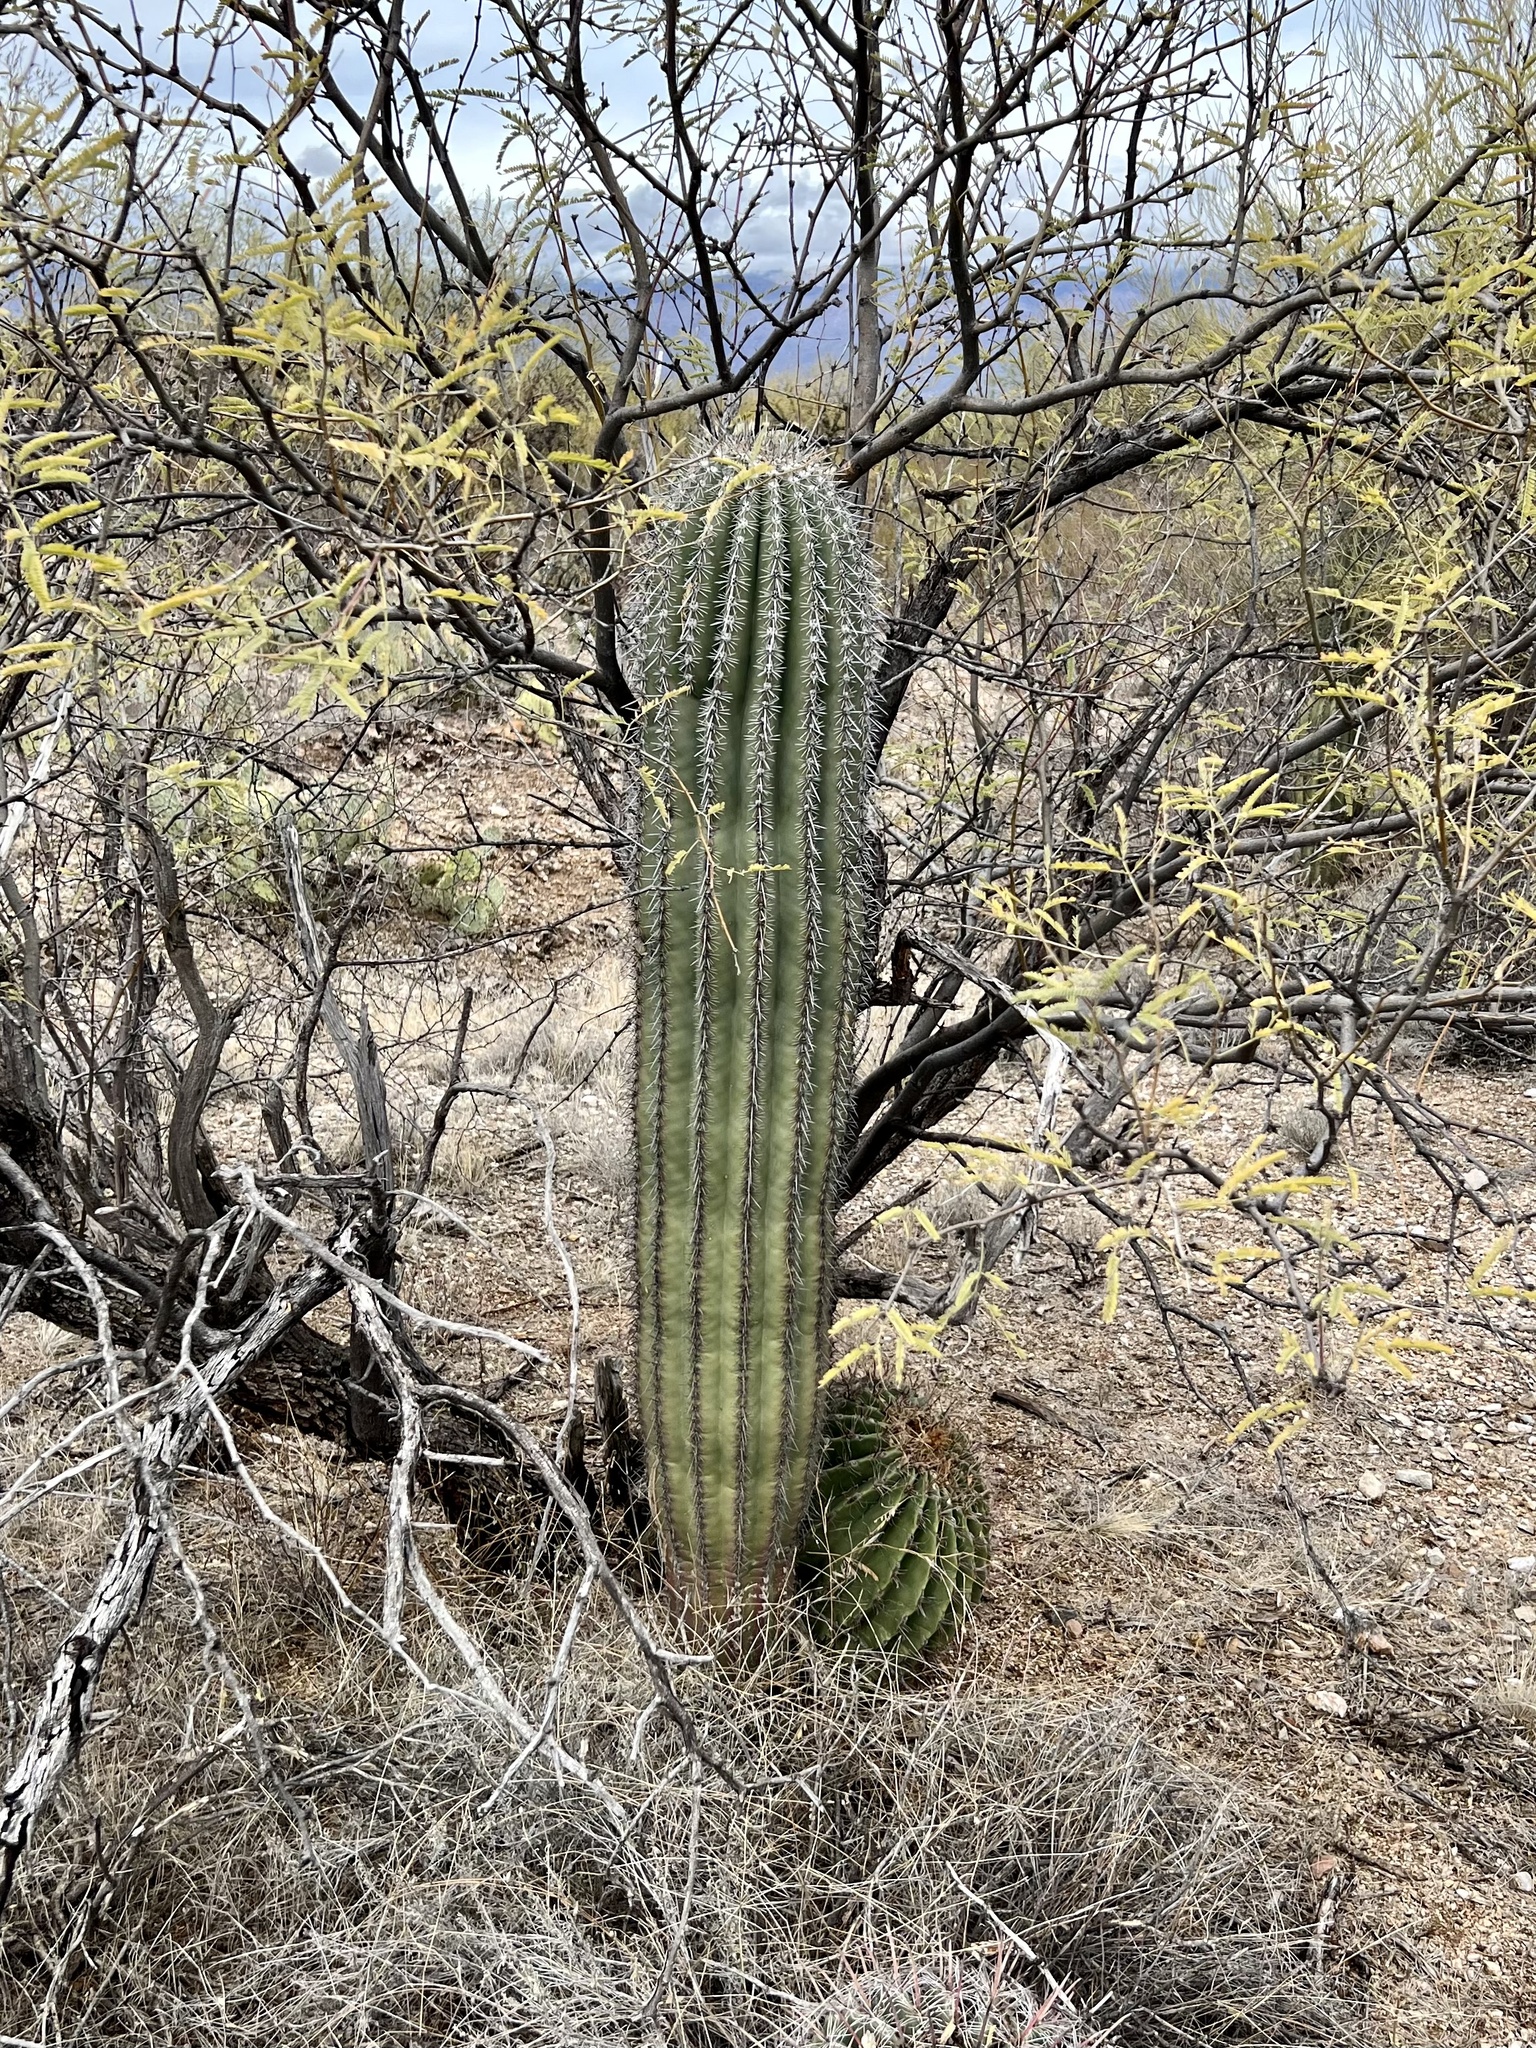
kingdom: Plantae
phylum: Tracheophyta
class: Magnoliopsida
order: Caryophyllales
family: Cactaceae
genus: Carnegiea
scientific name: Carnegiea gigantea
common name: Saguaro
